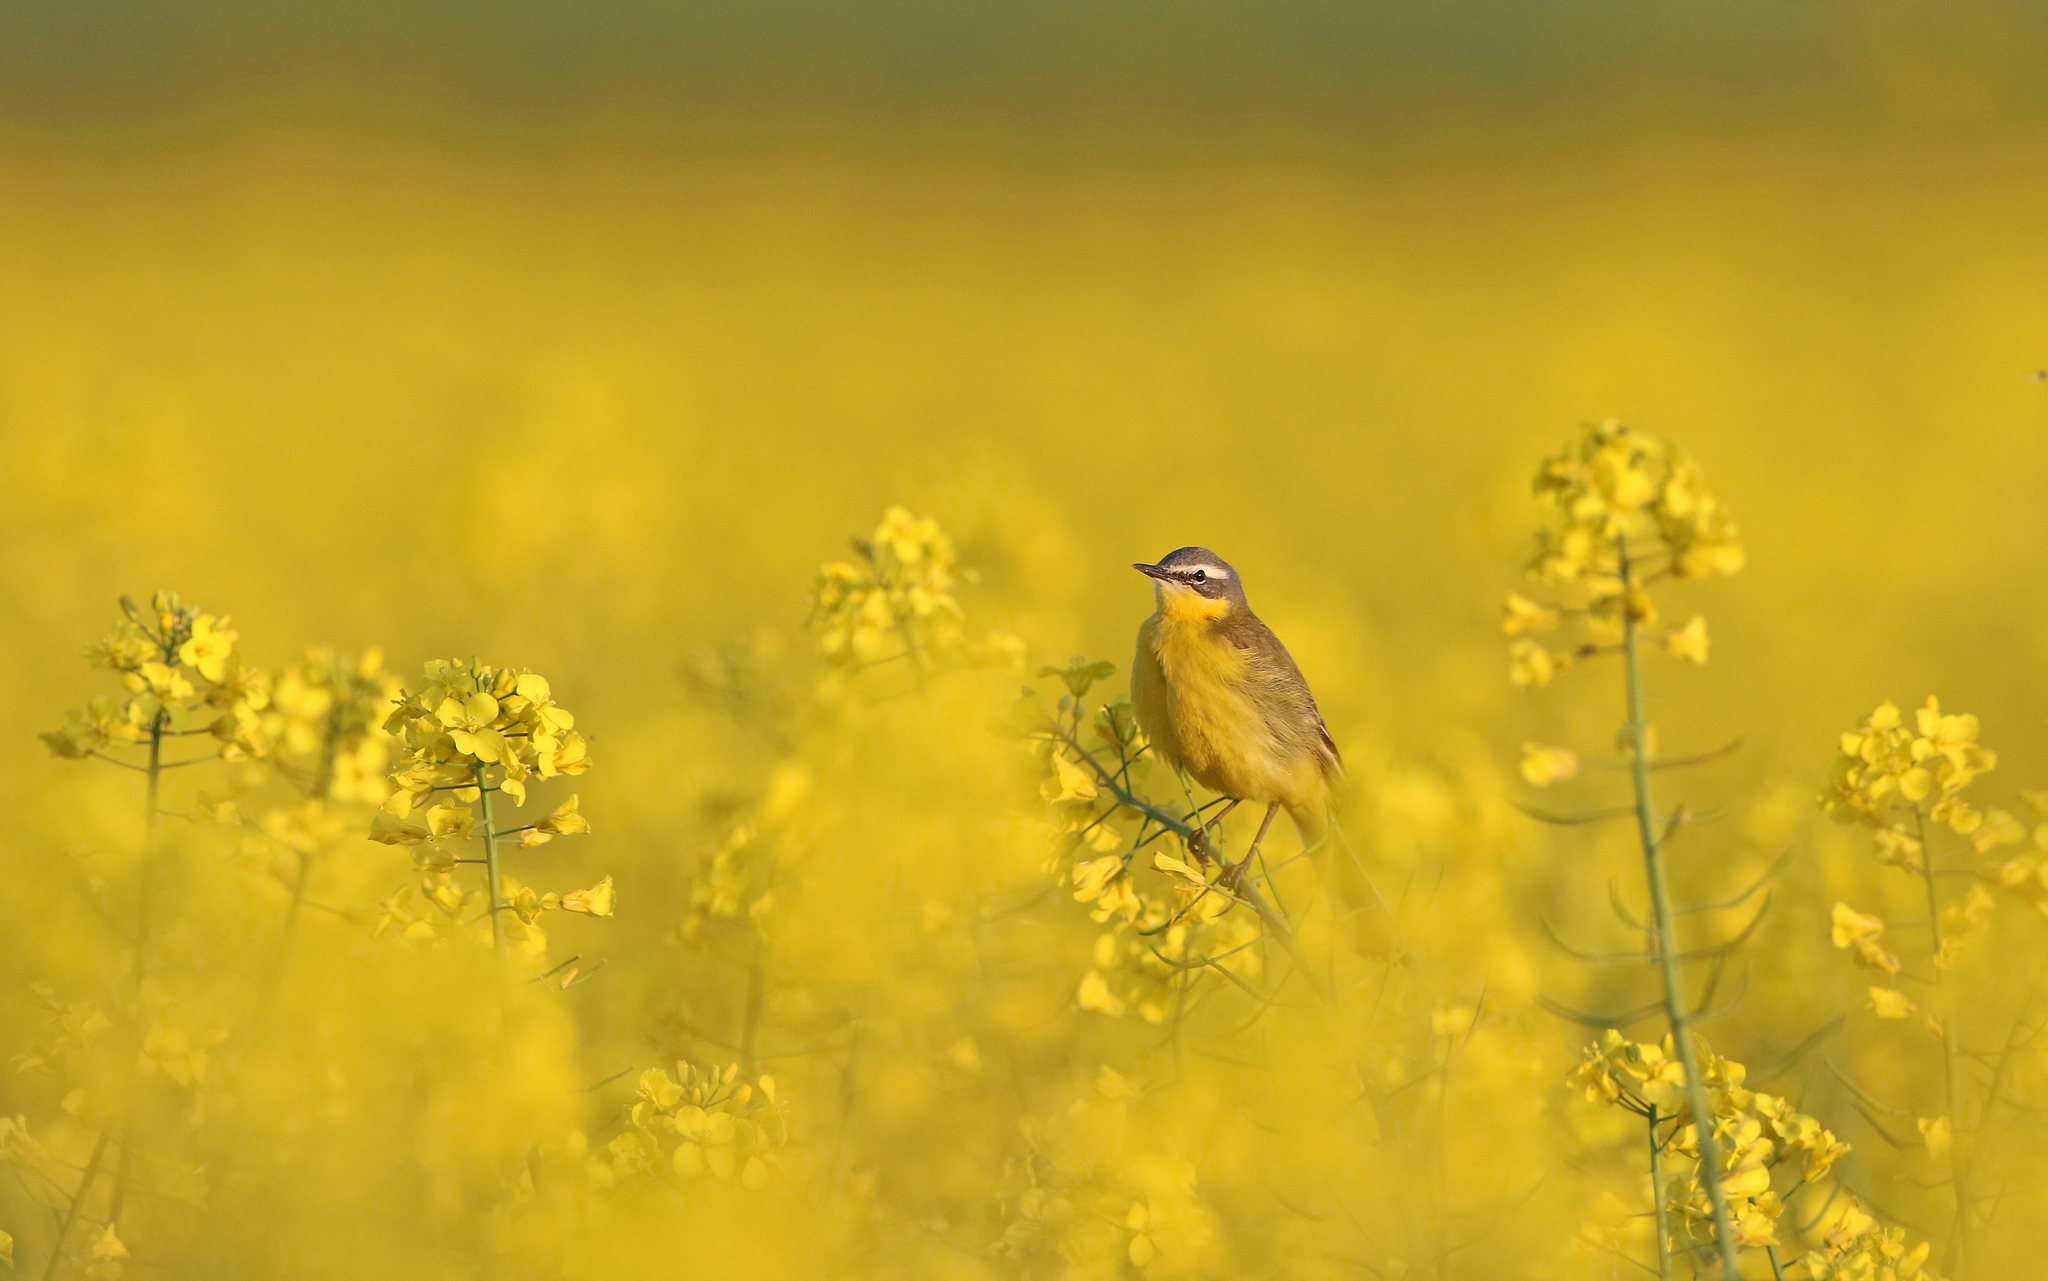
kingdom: Animalia
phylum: Chordata
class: Aves
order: Passeriformes
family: Motacillidae
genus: Motacilla
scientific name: Motacilla flava
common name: Western yellow wagtail
